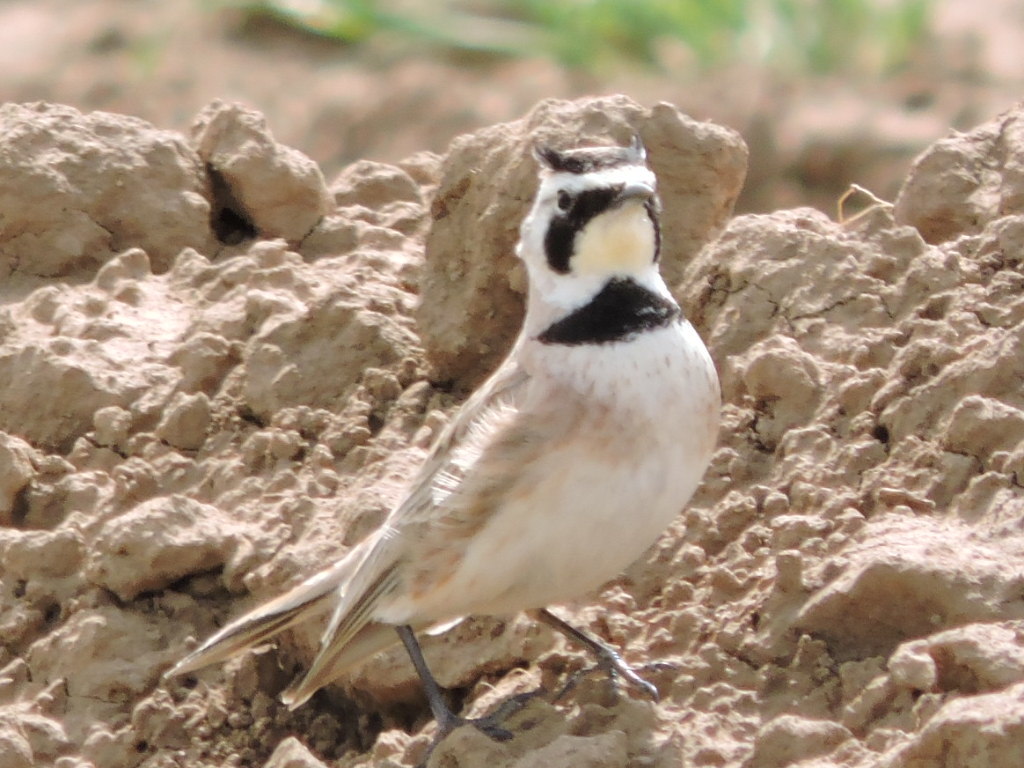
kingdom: Animalia
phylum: Chordata
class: Aves
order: Passeriformes
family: Alaudidae
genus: Eremophila
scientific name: Eremophila alpestris
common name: Horned lark
